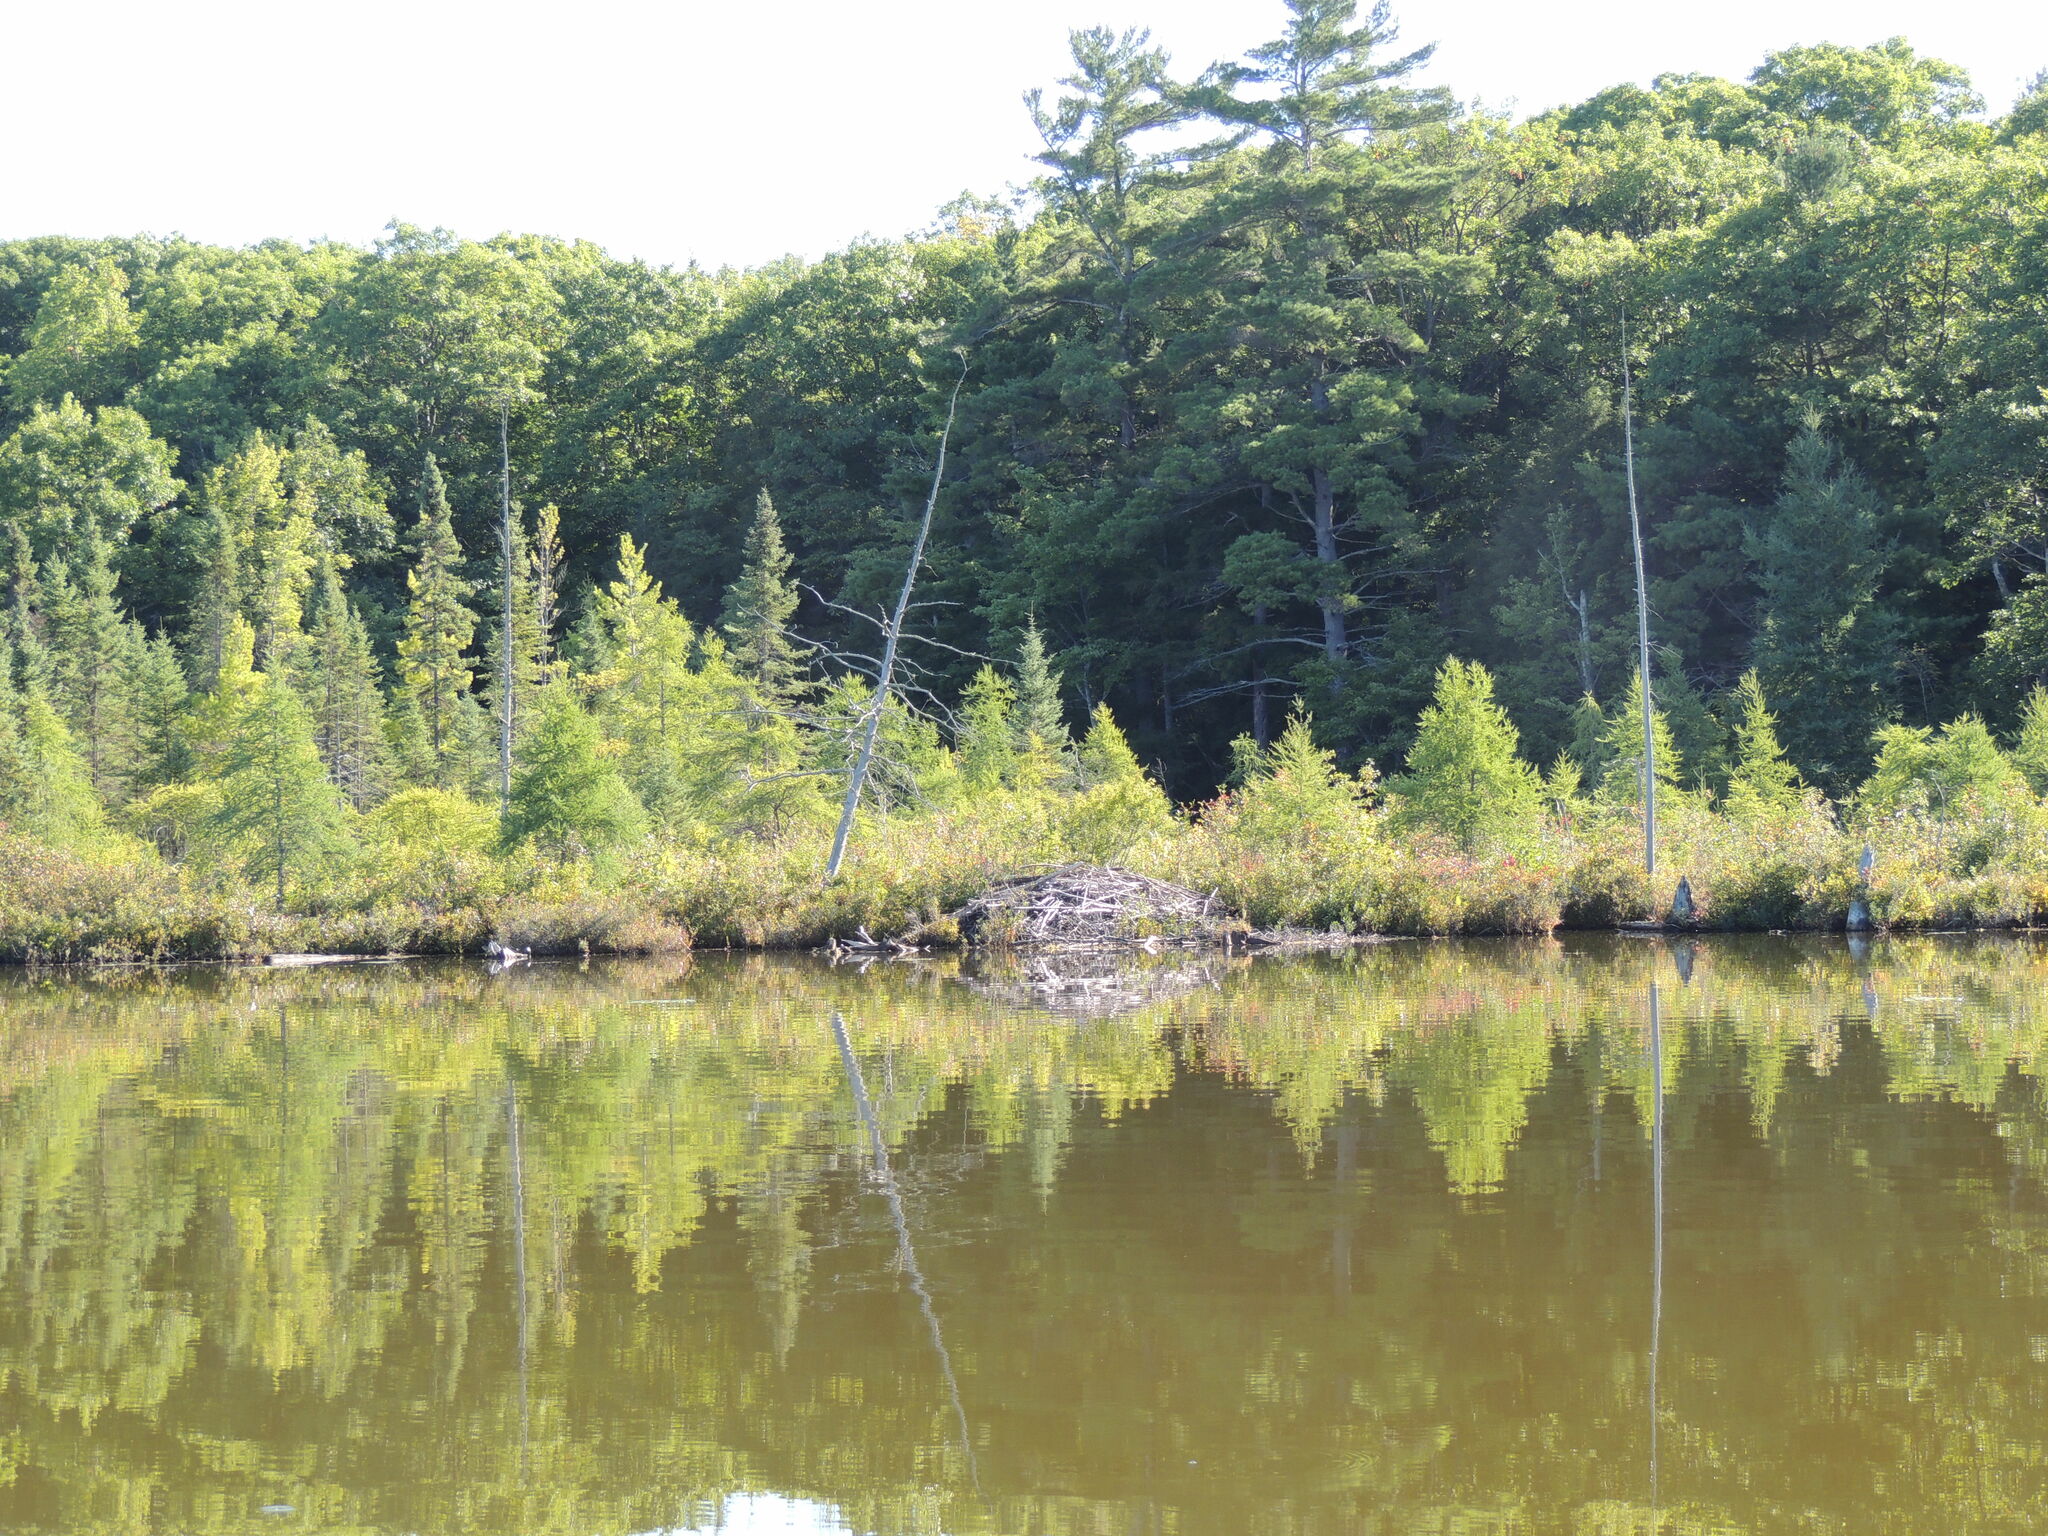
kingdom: Animalia
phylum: Chordata
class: Mammalia
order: Rodentia
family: Castoridae
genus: Castor
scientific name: Castor canadensis
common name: American beaver
